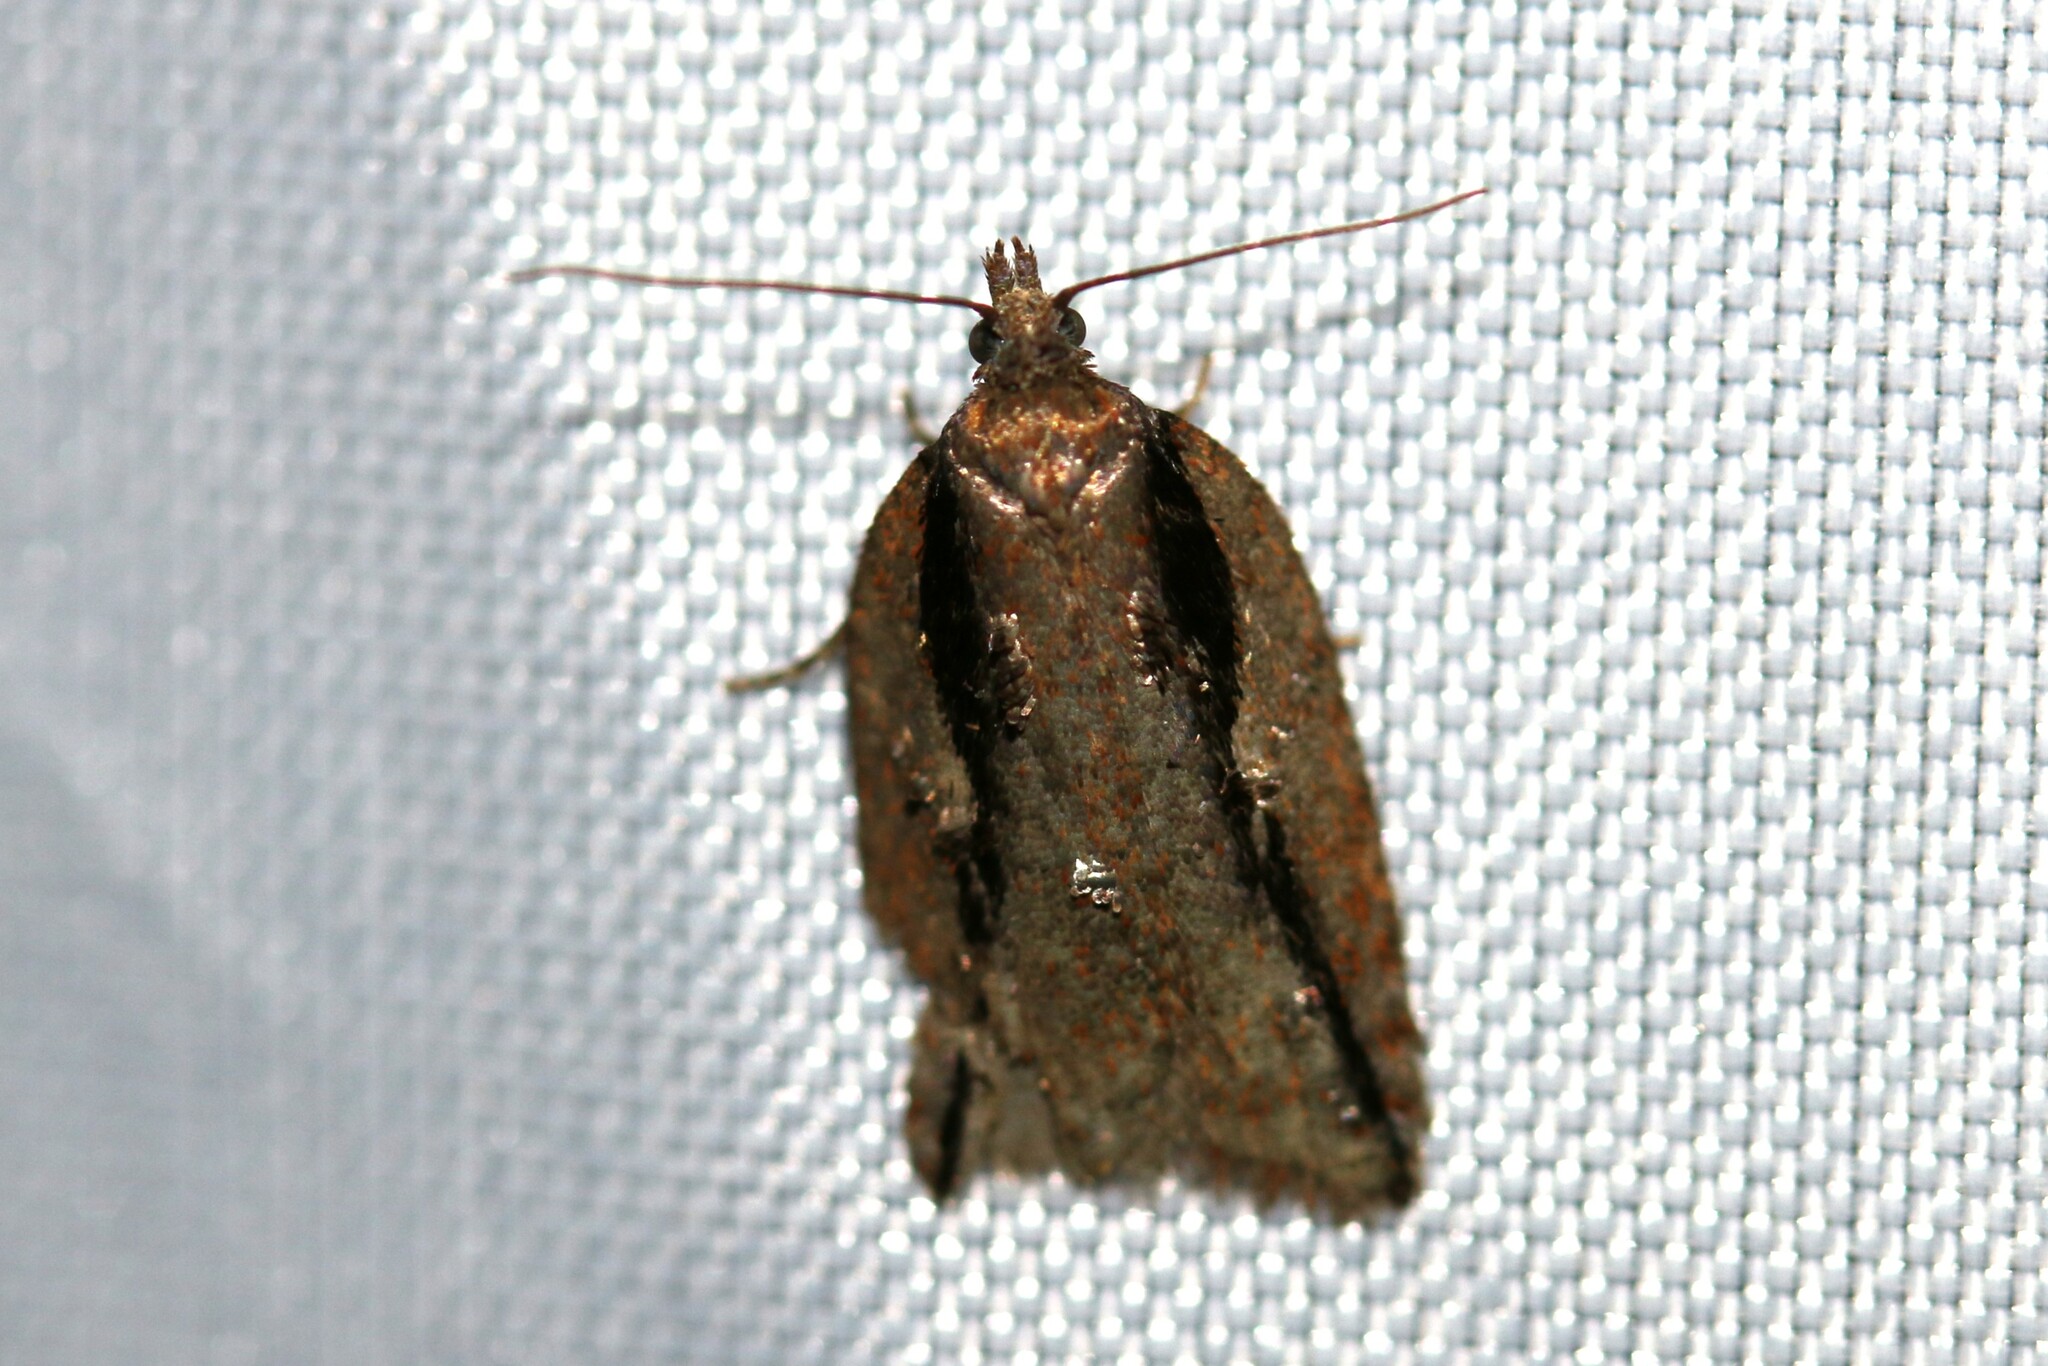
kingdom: Animalia
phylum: Arthropoda
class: Insecta
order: Lepidoptera
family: Tortricidae
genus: Acleris
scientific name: Acleris umbrana
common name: Dark-streaked button
